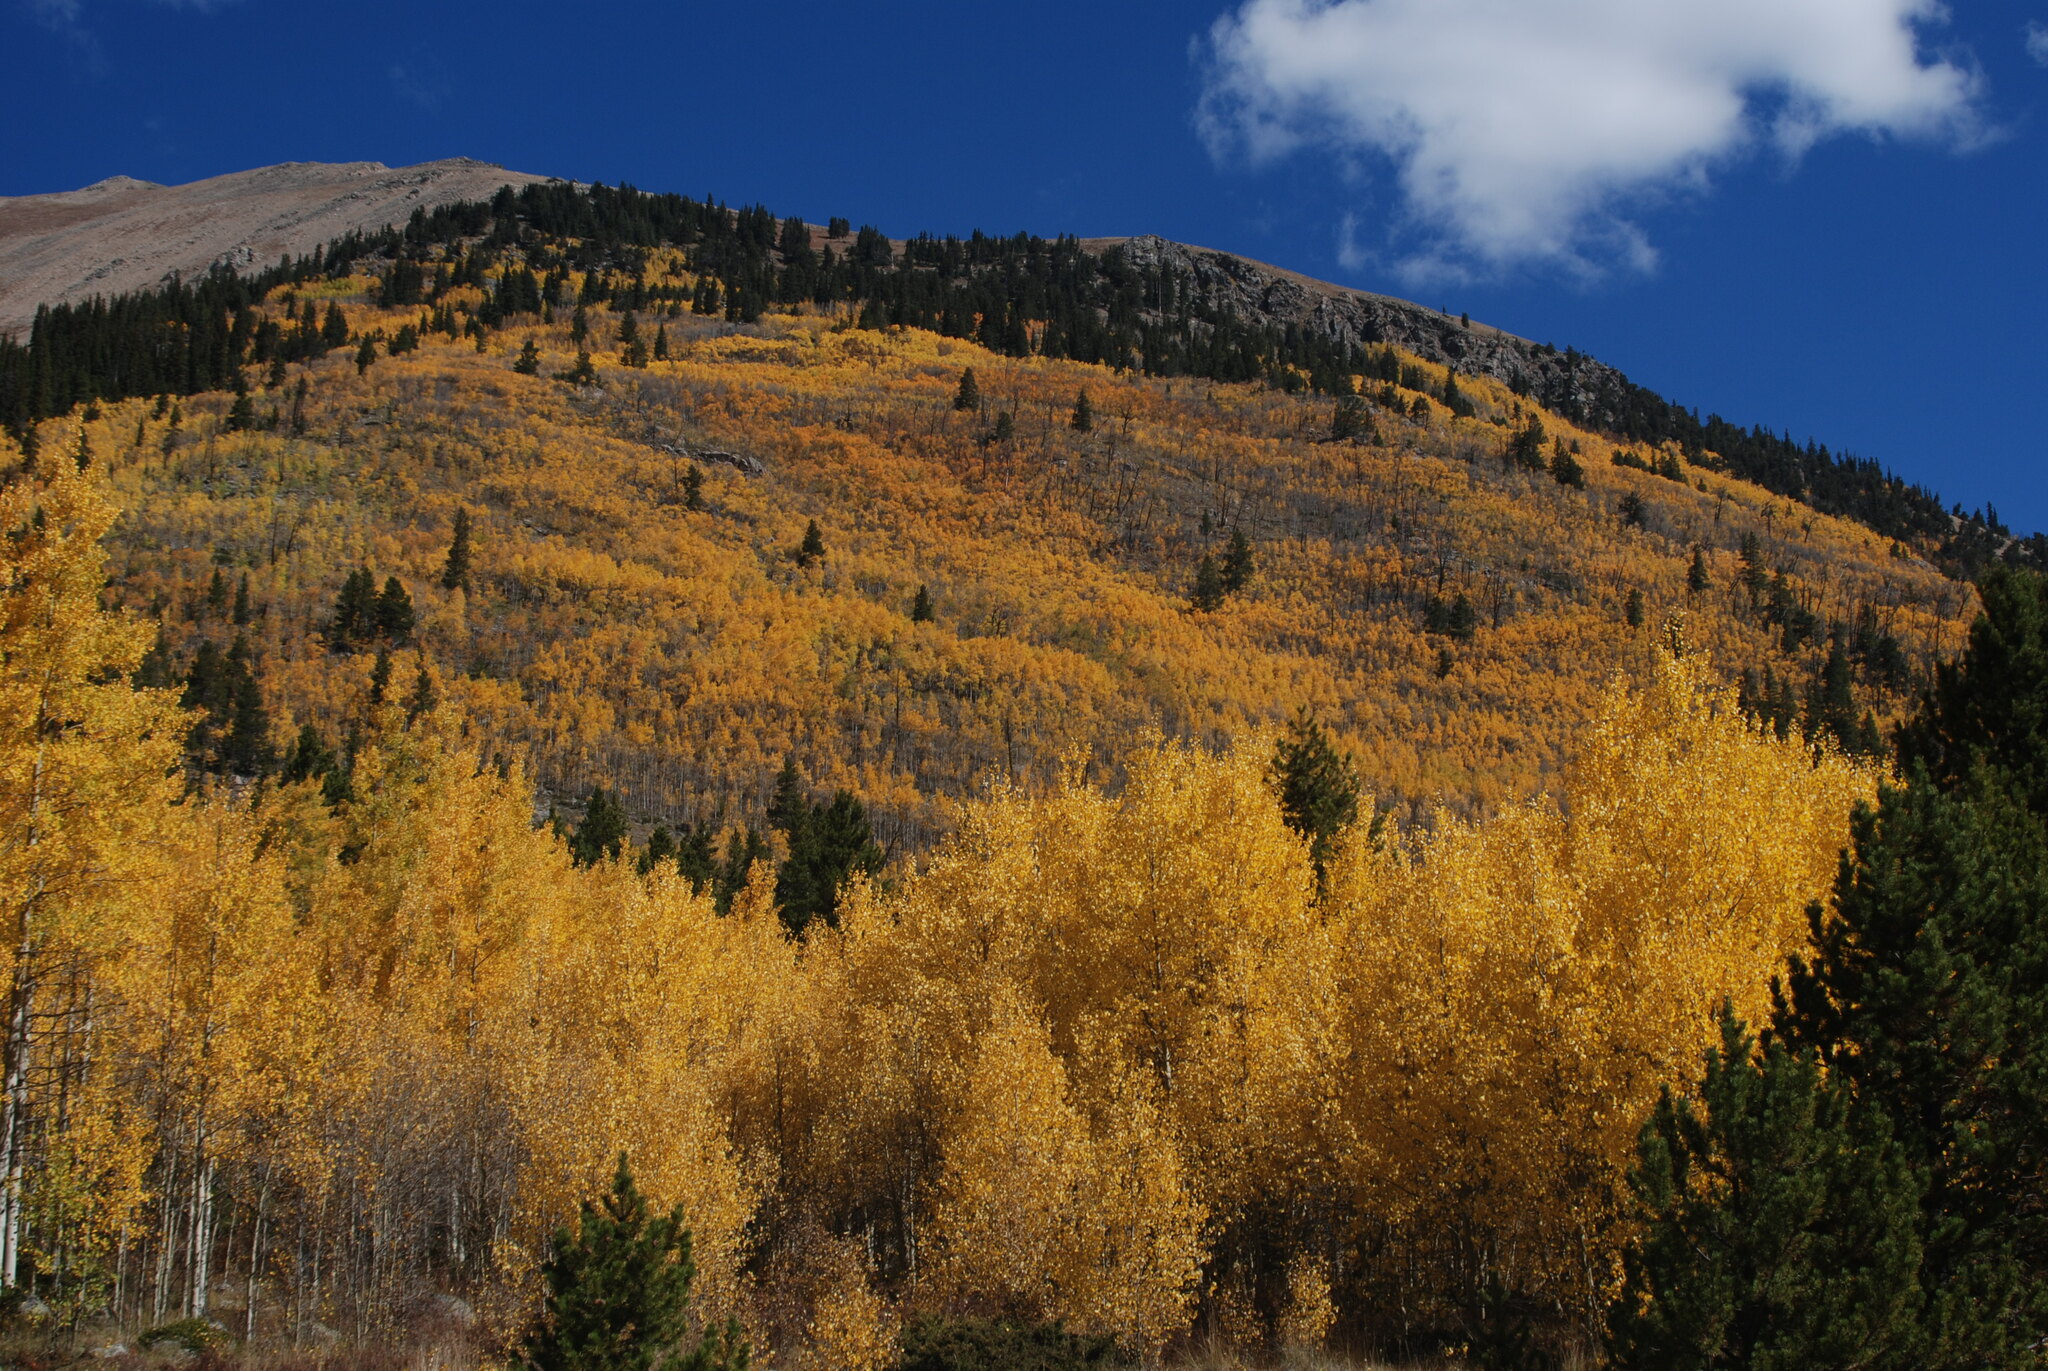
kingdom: Plantae
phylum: Tracheophyta
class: Magnoliopsida
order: Malpighiales
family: Salicaceae
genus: Populus
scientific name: Populus tremuloides
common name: Quaking aspen
